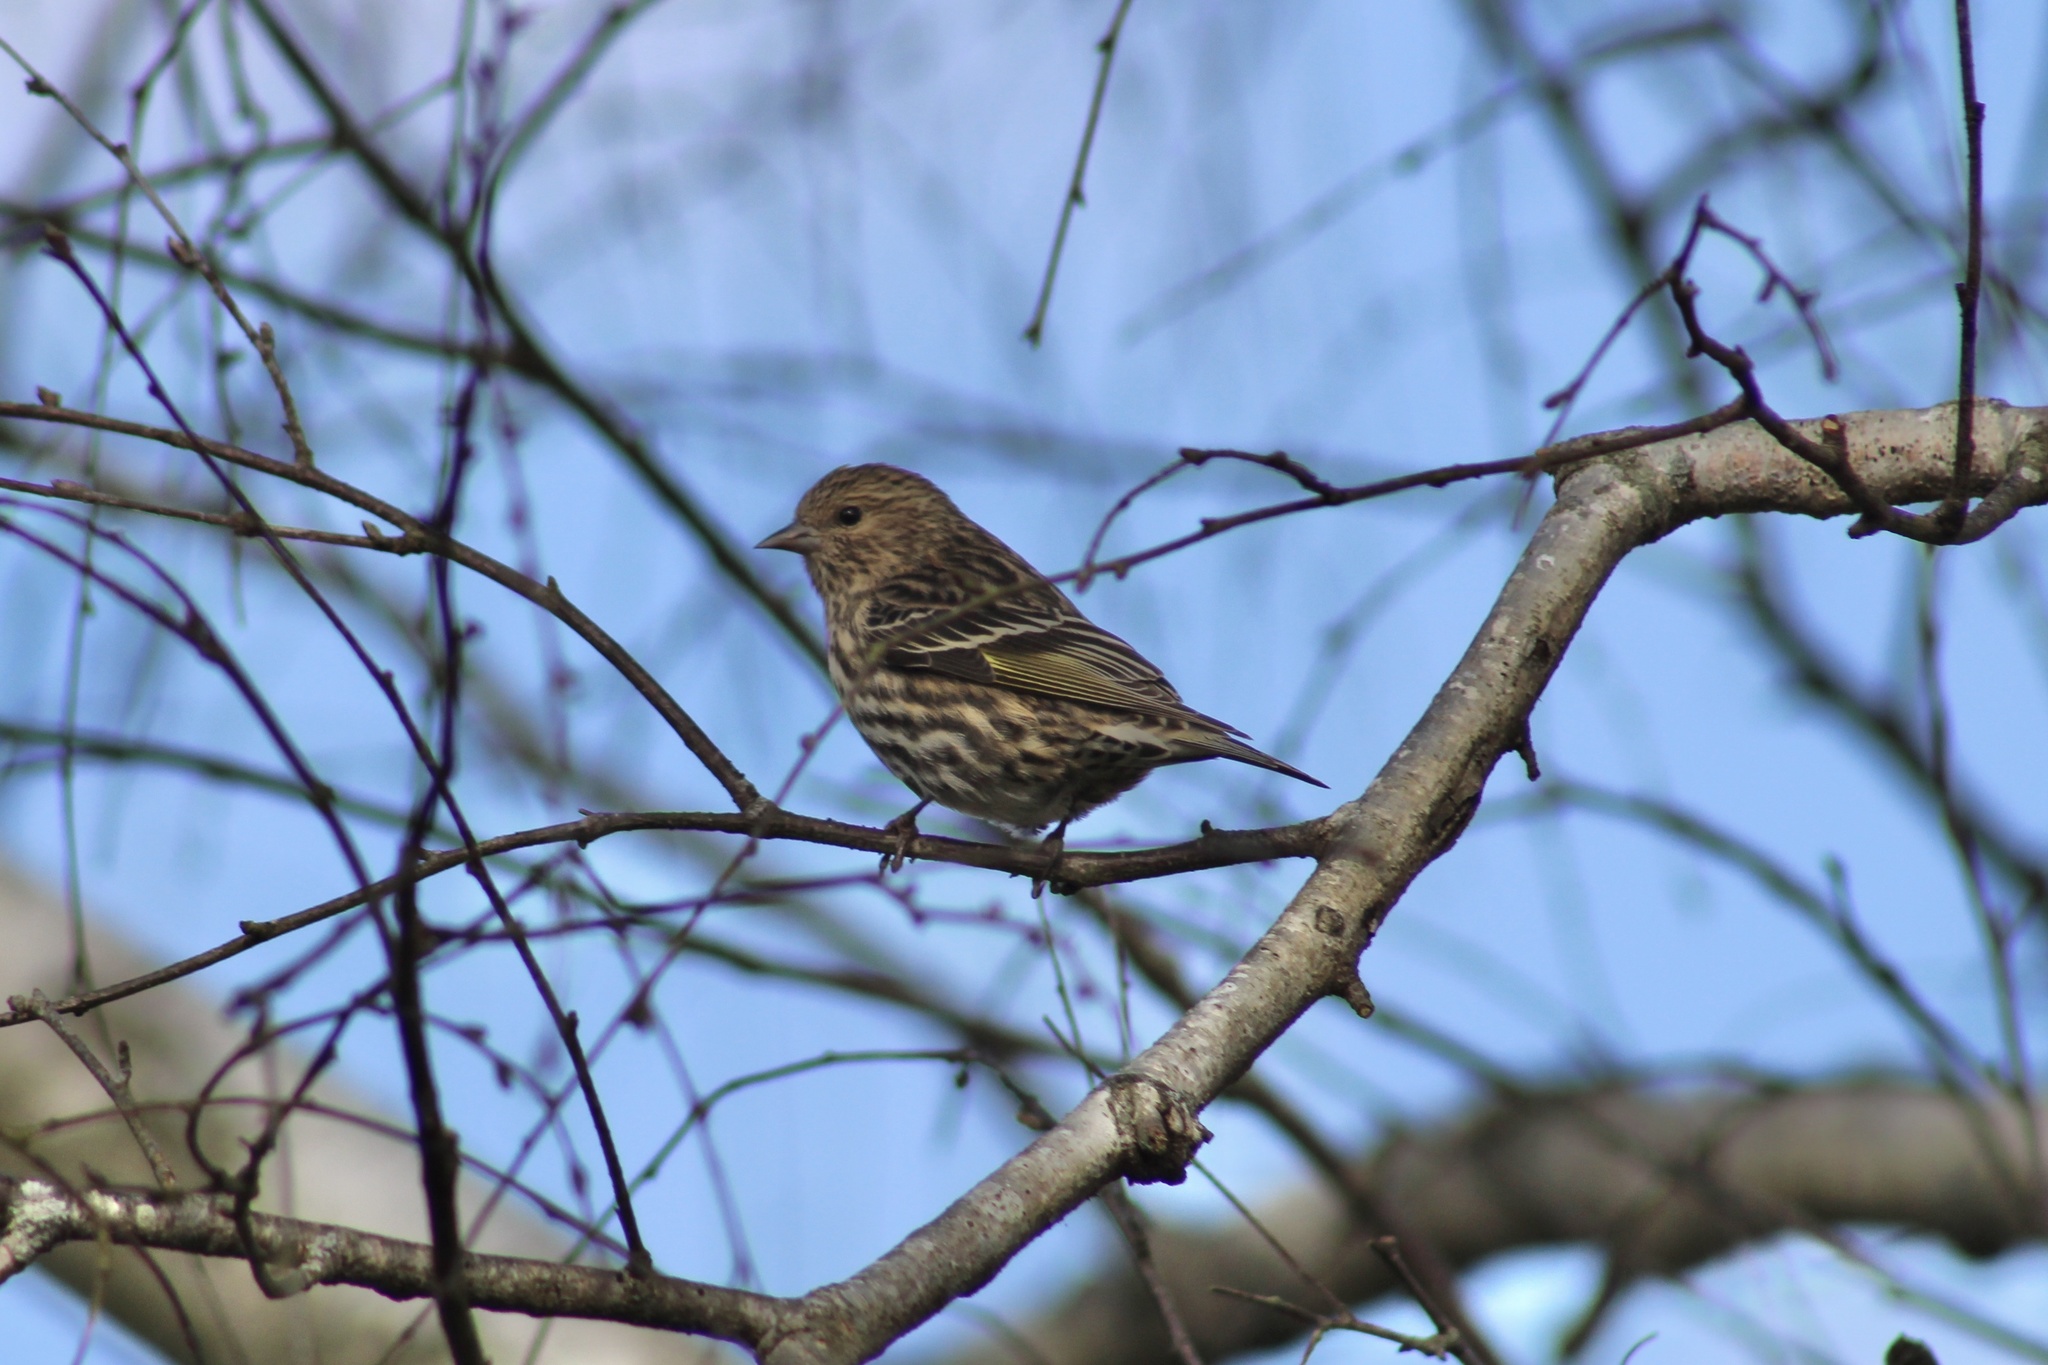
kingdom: Animalia
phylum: Chordata
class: Aves
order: Passeriformes
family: Fringillidae
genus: Spinus
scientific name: Spinus pinus
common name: Pine siskin
